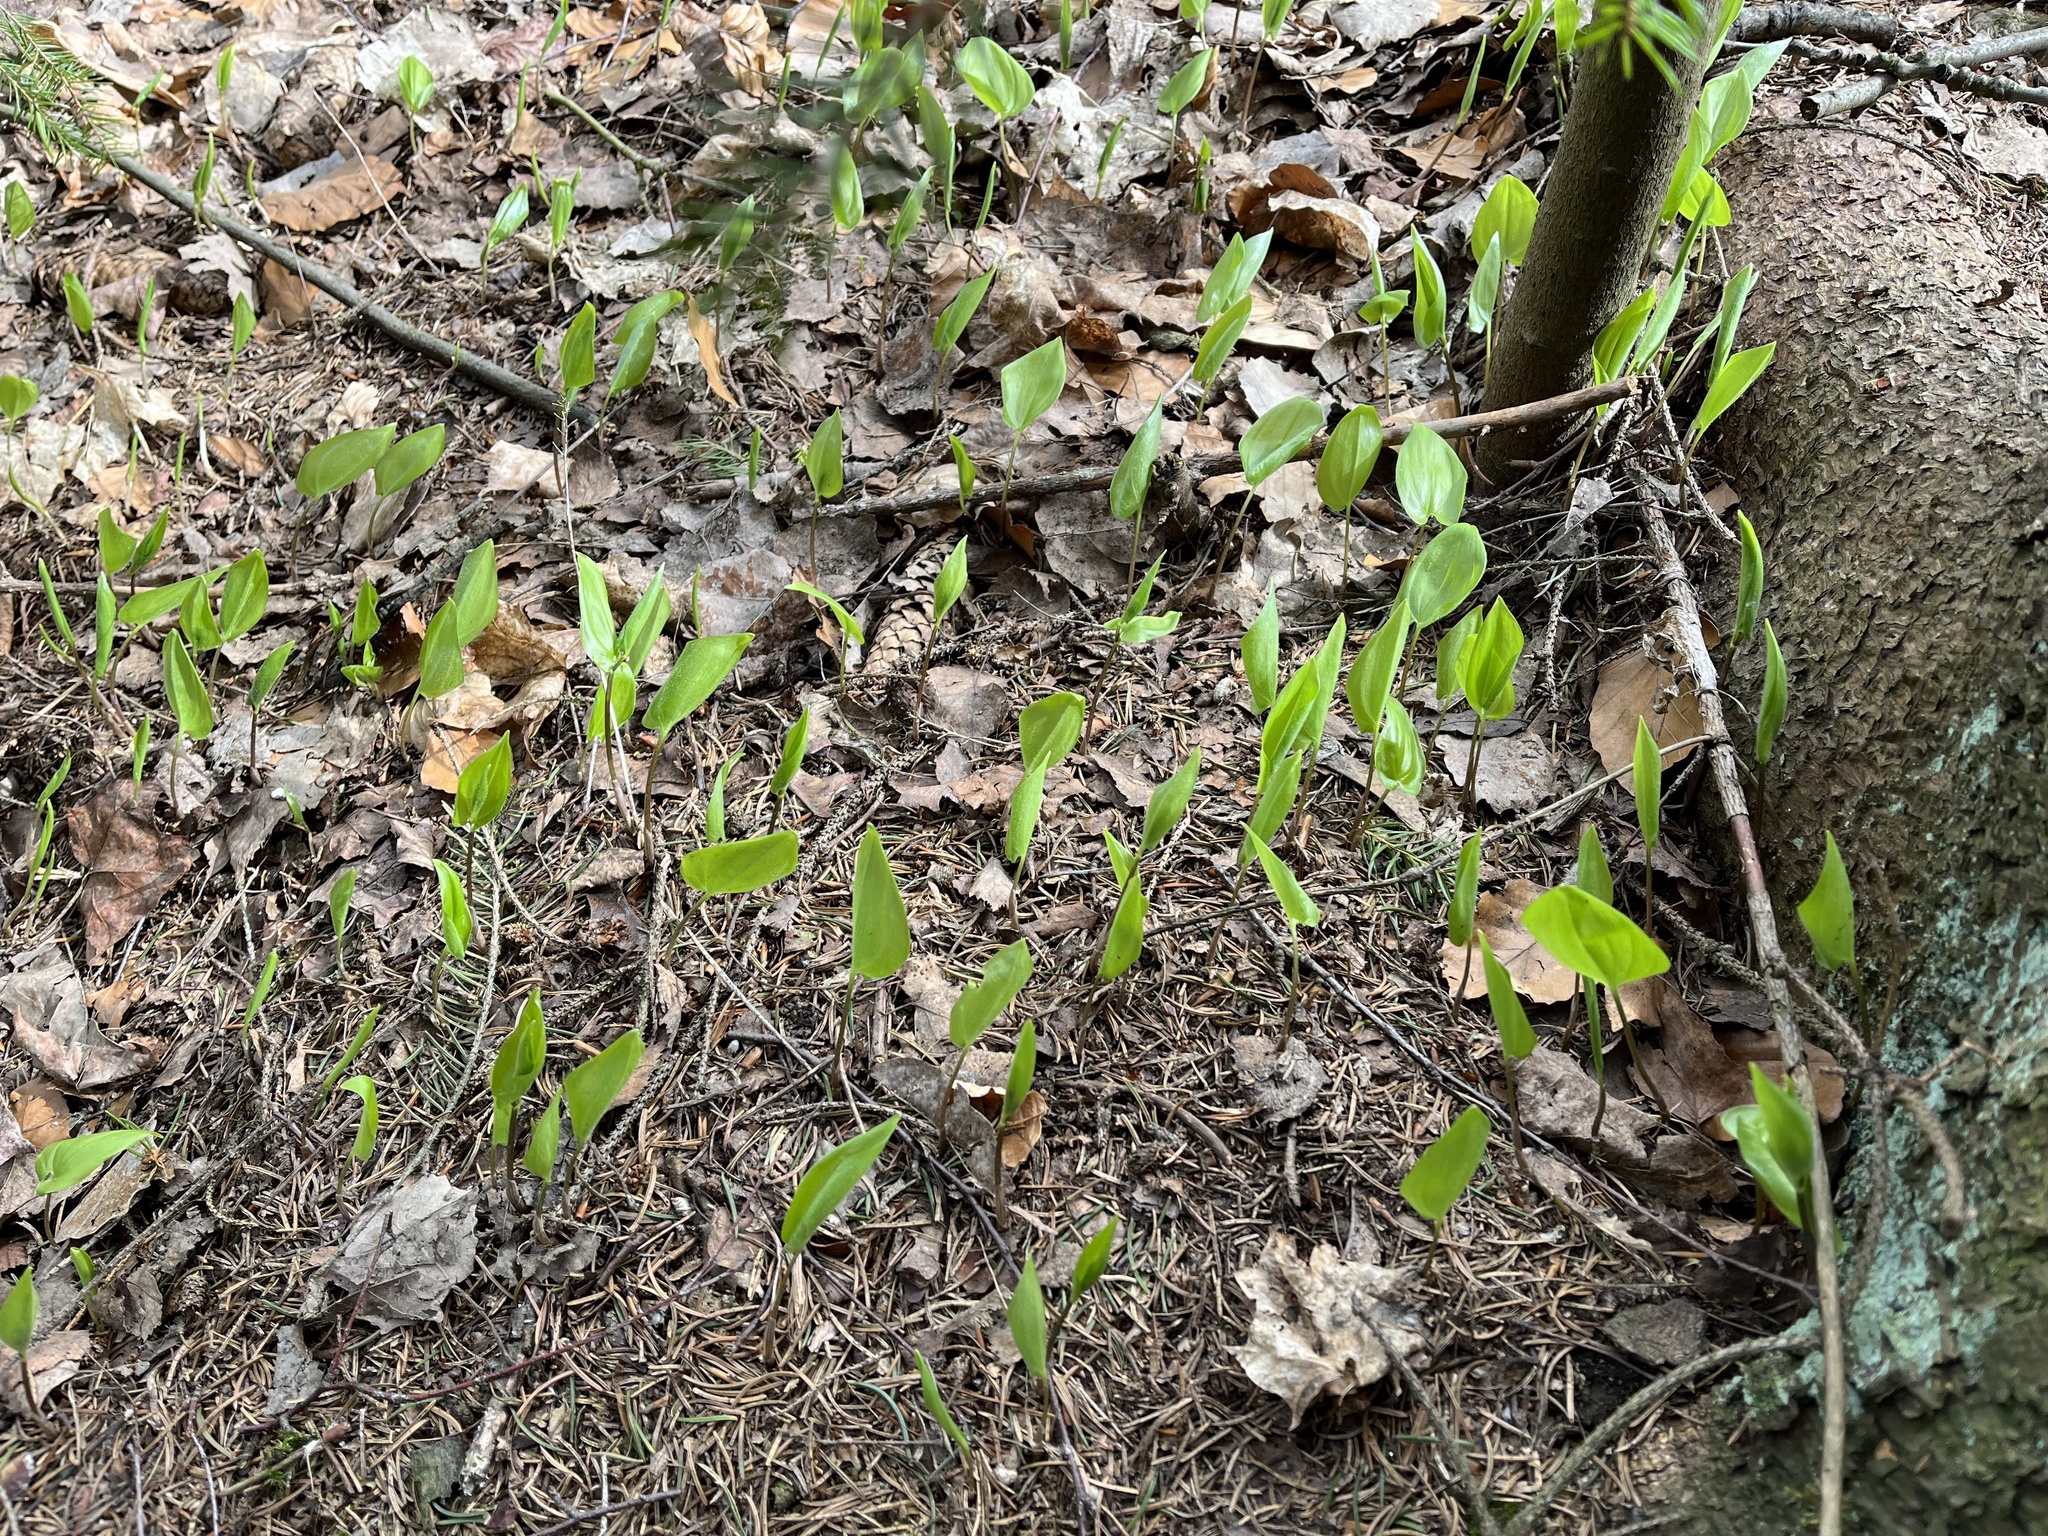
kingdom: Plantae
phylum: Tracheophyta
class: Liliopsida
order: Asparagales
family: Asparagaceae
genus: Maianthemum
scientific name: Maianthemum bifolium
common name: May lily
